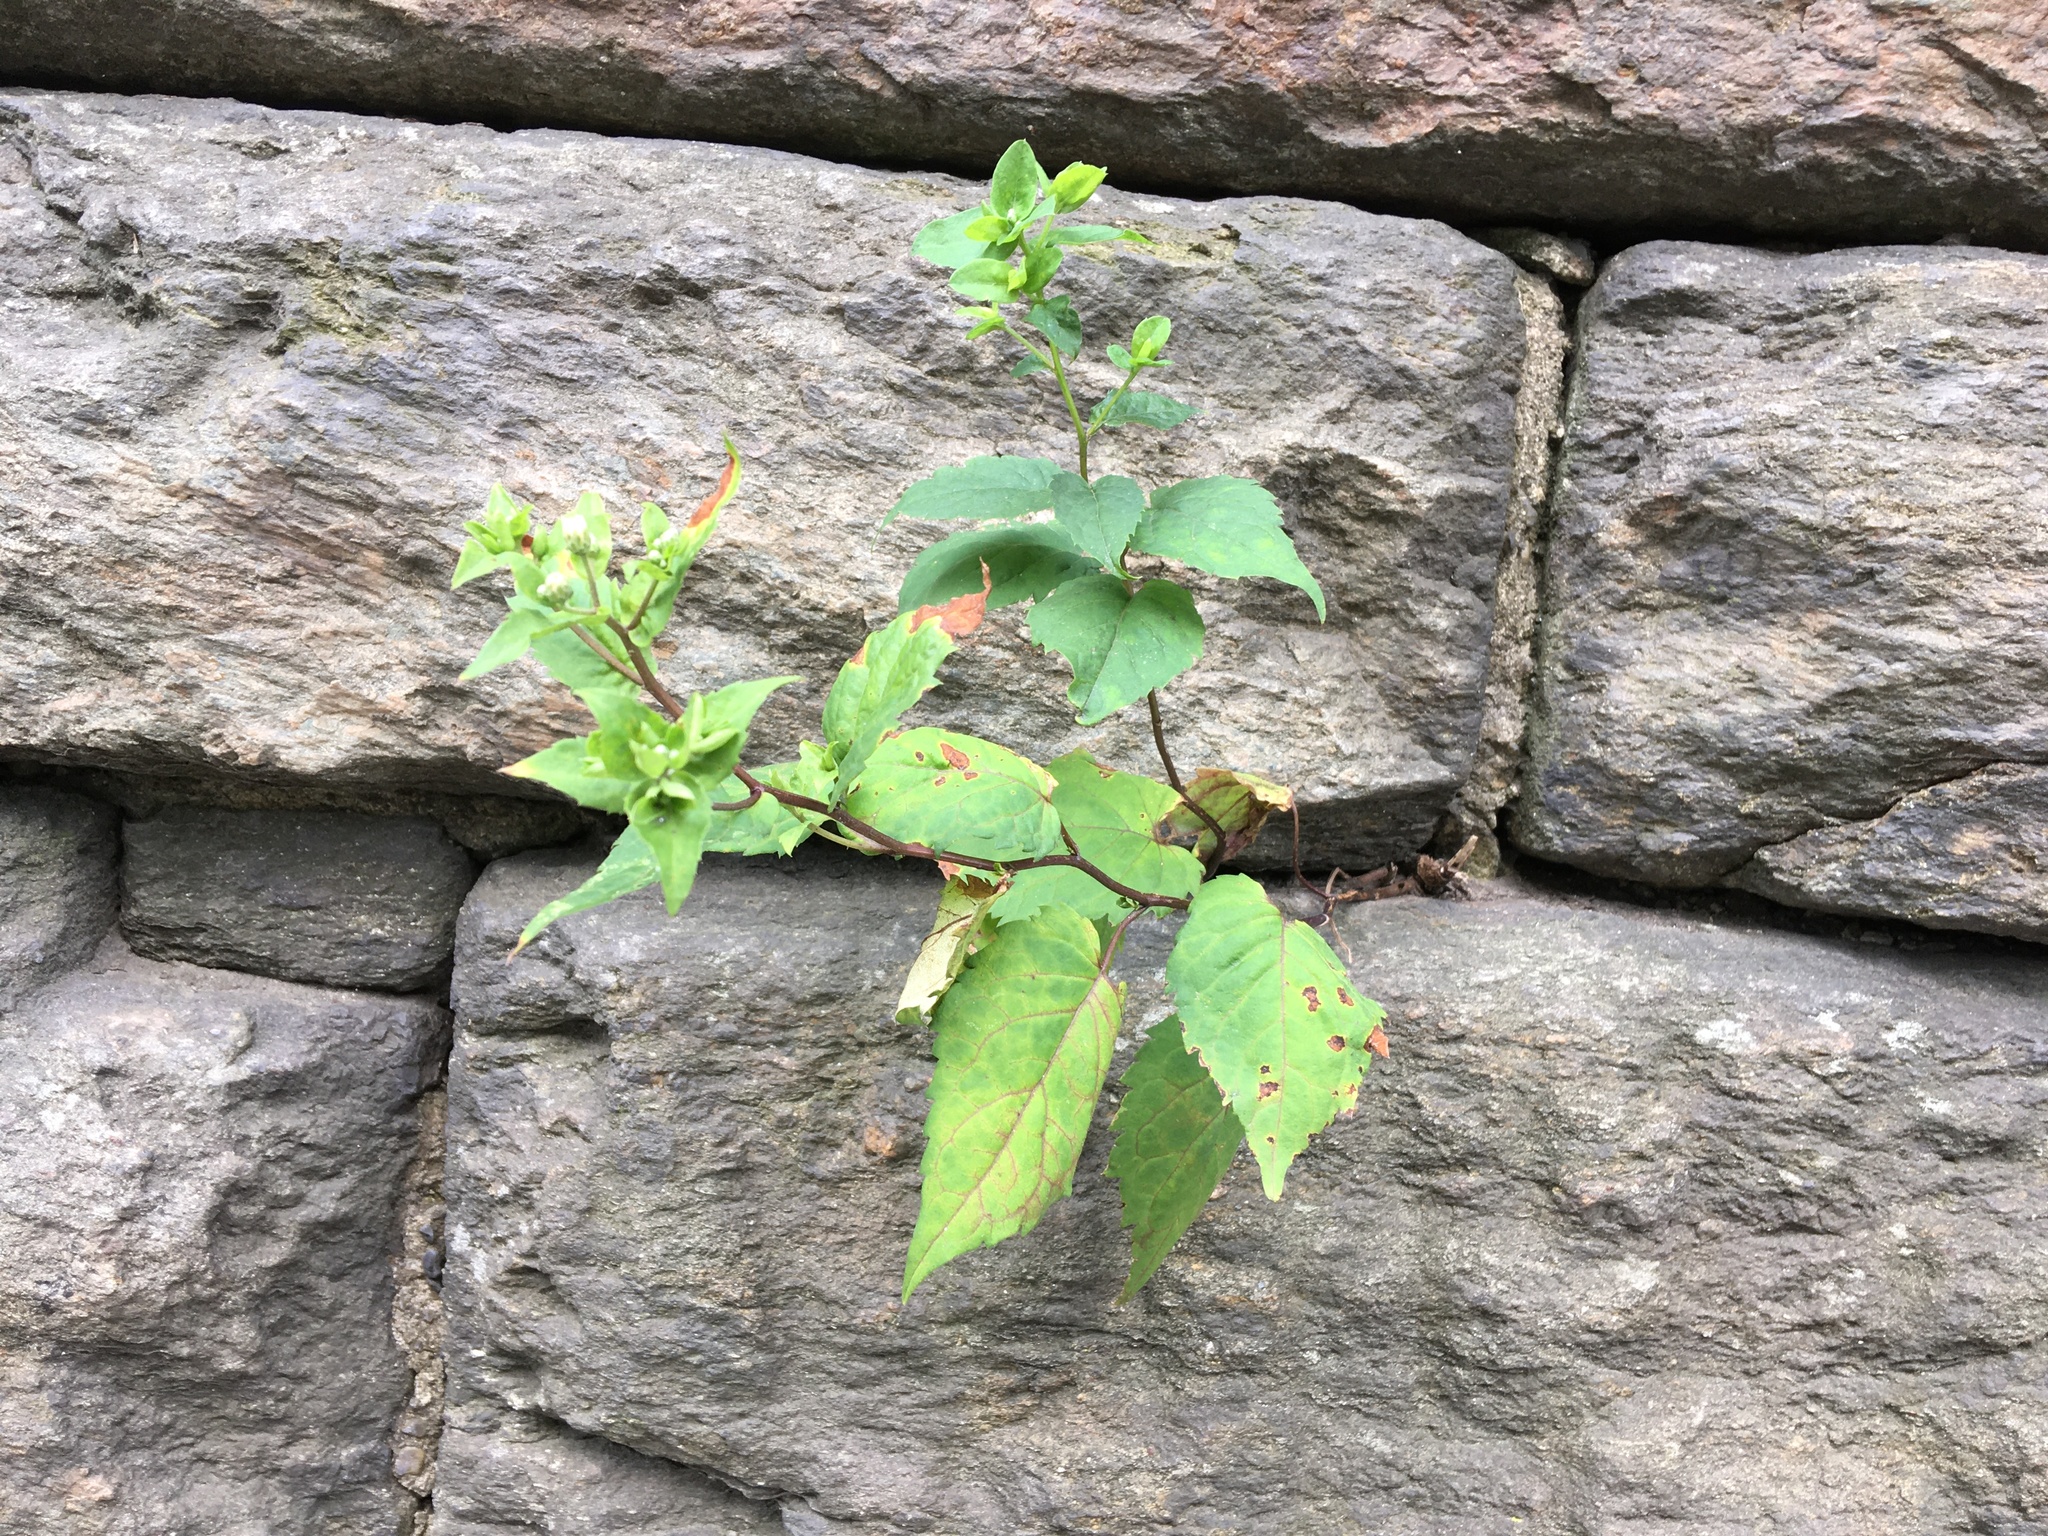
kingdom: Plantae
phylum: Tracheophyta
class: Magnoliopsida
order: Asterales
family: Asteraceae
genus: Eurybia
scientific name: Eurybia divaricata
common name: White wood aster
